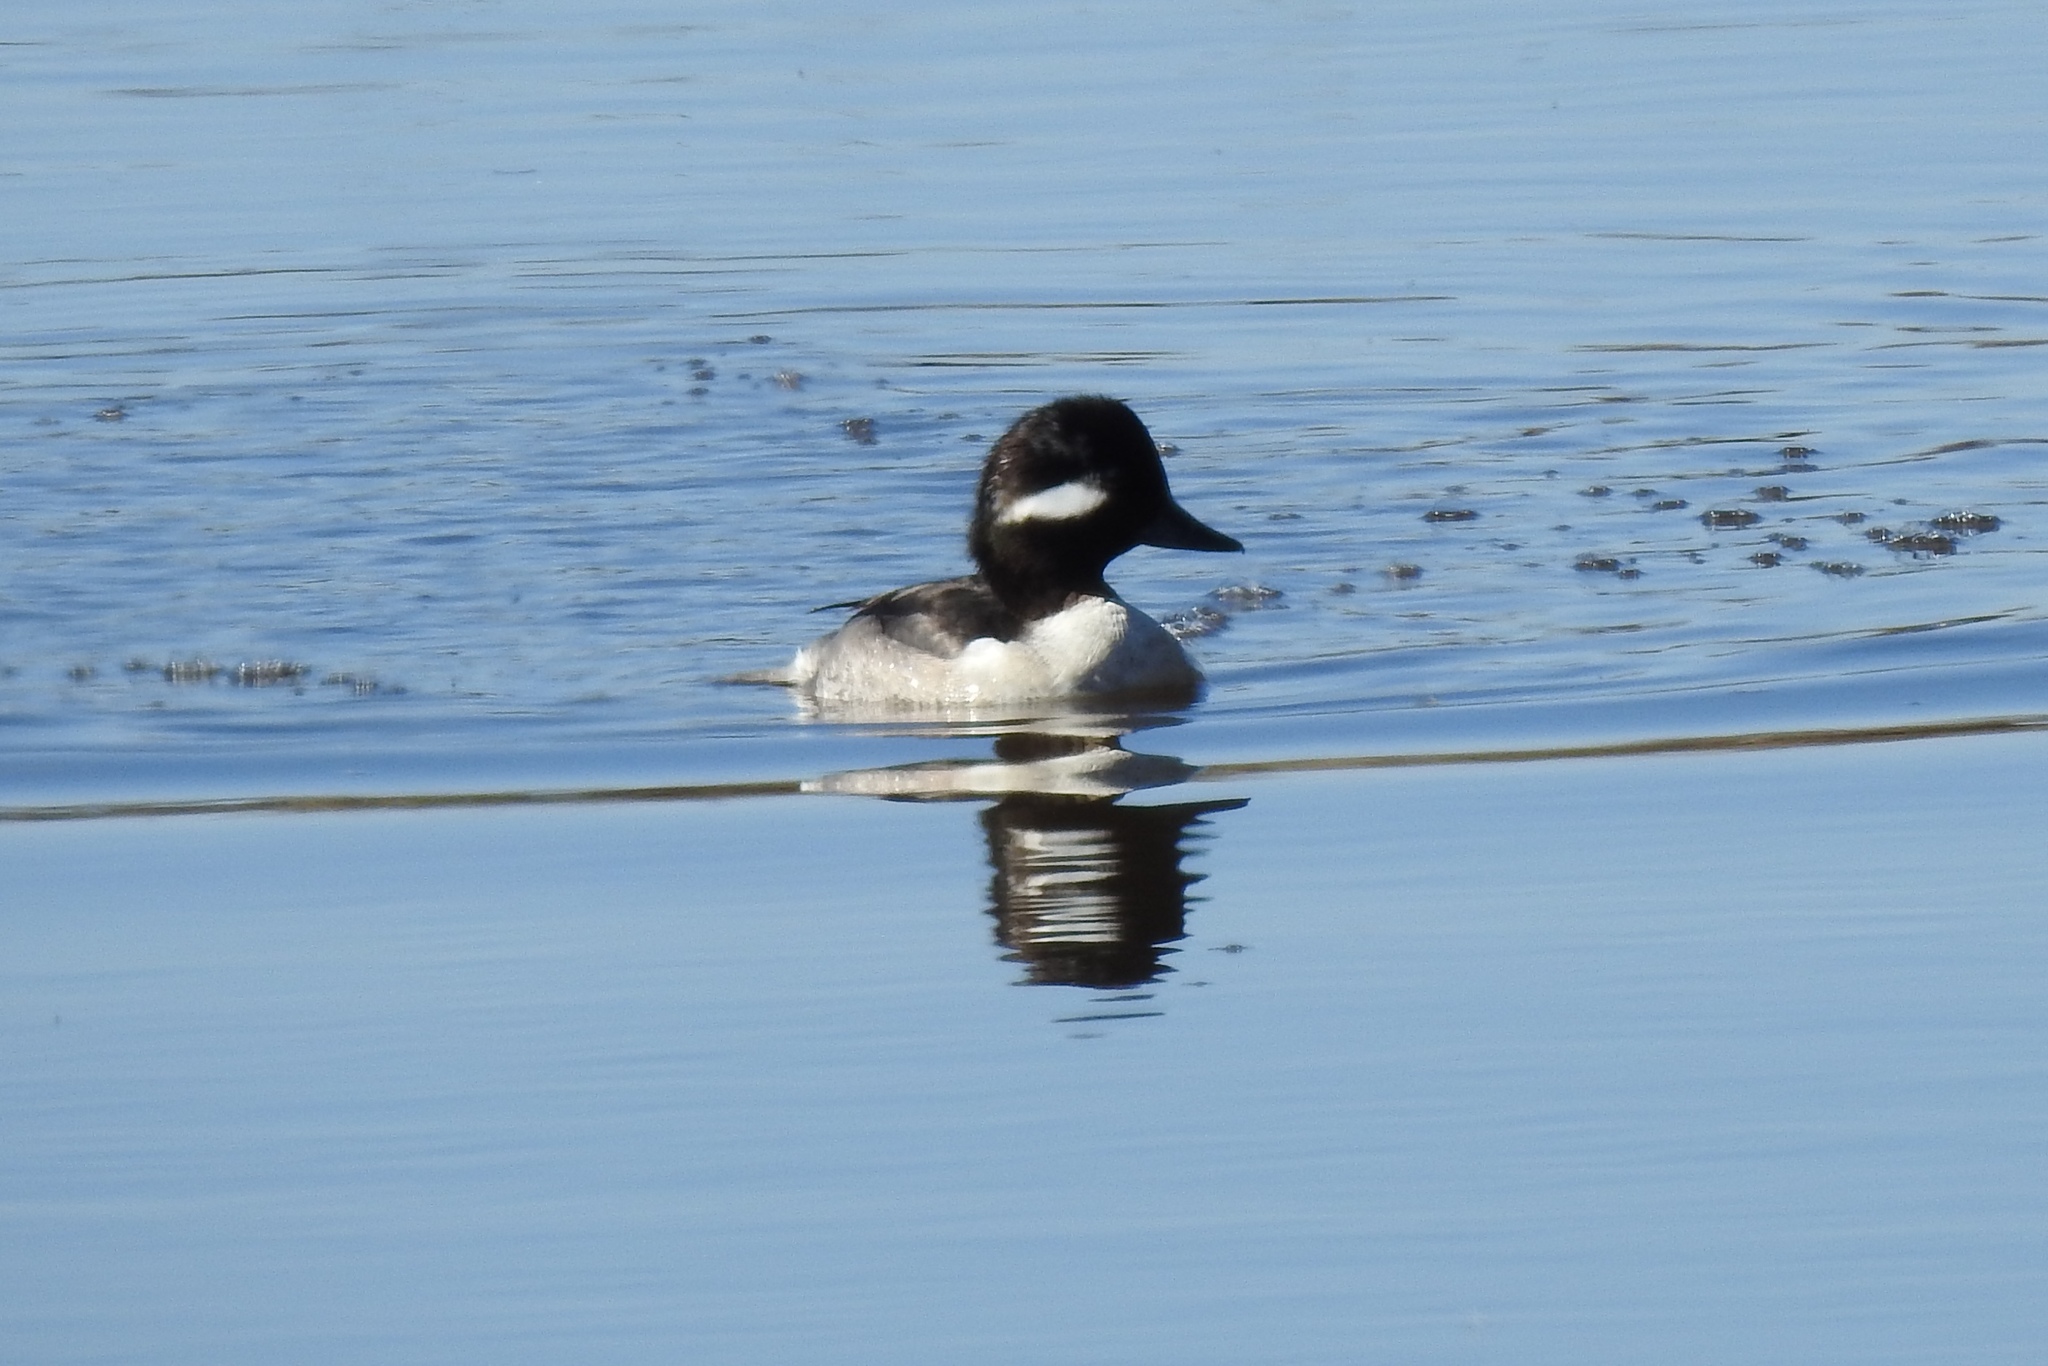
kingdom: Animalia
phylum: Chordata
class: Aves
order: Anseriformes
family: Anatidae
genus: Bucephala
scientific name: Bucephala albeola
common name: Bufflehead
